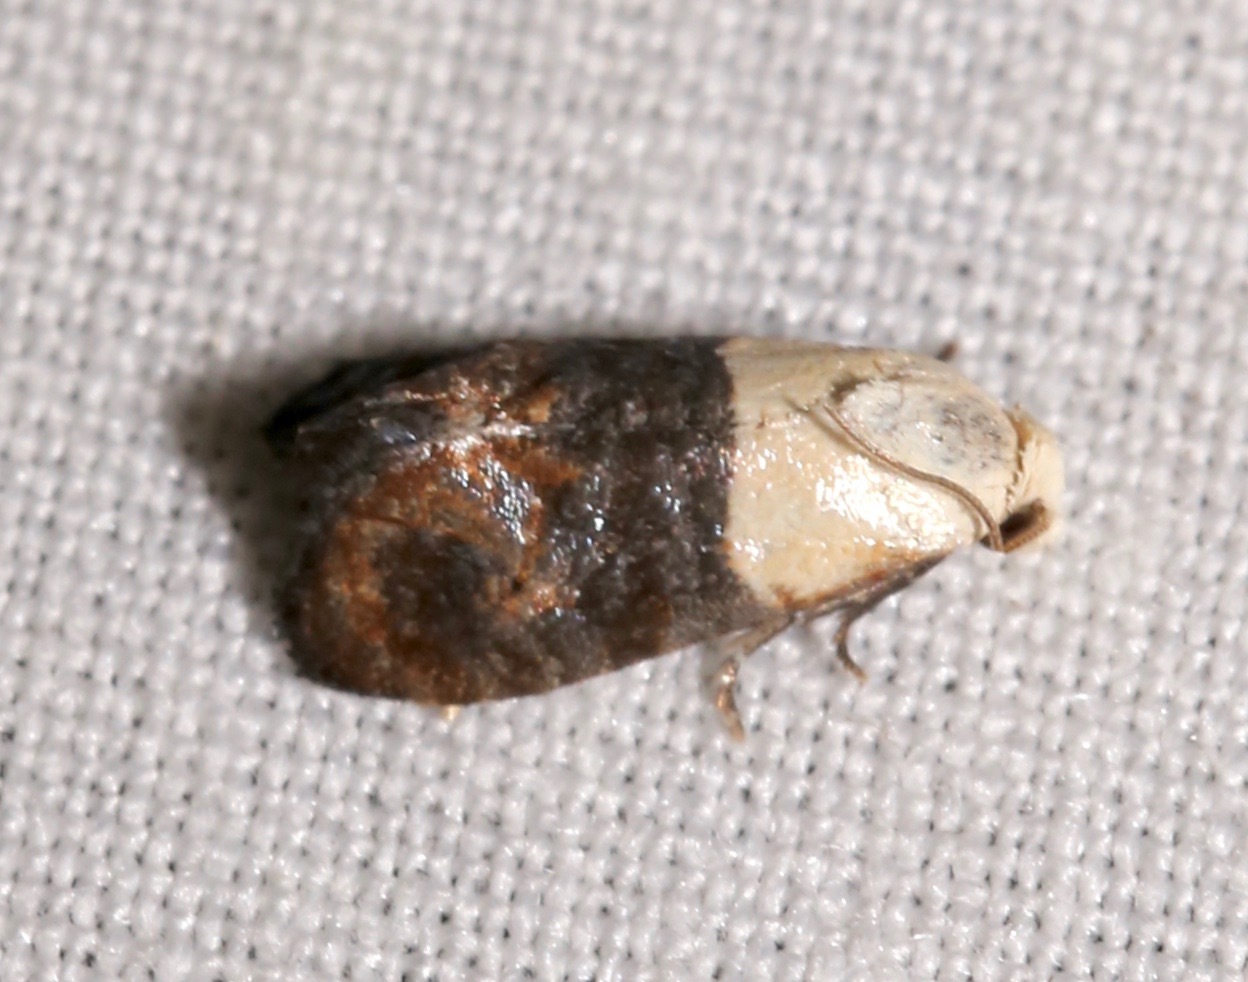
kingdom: Animalia
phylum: Arthropoda
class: Insecta
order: Lepidoptera
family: Tortricidae
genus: Eugnosta
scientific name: Eugnosta erigeronana
